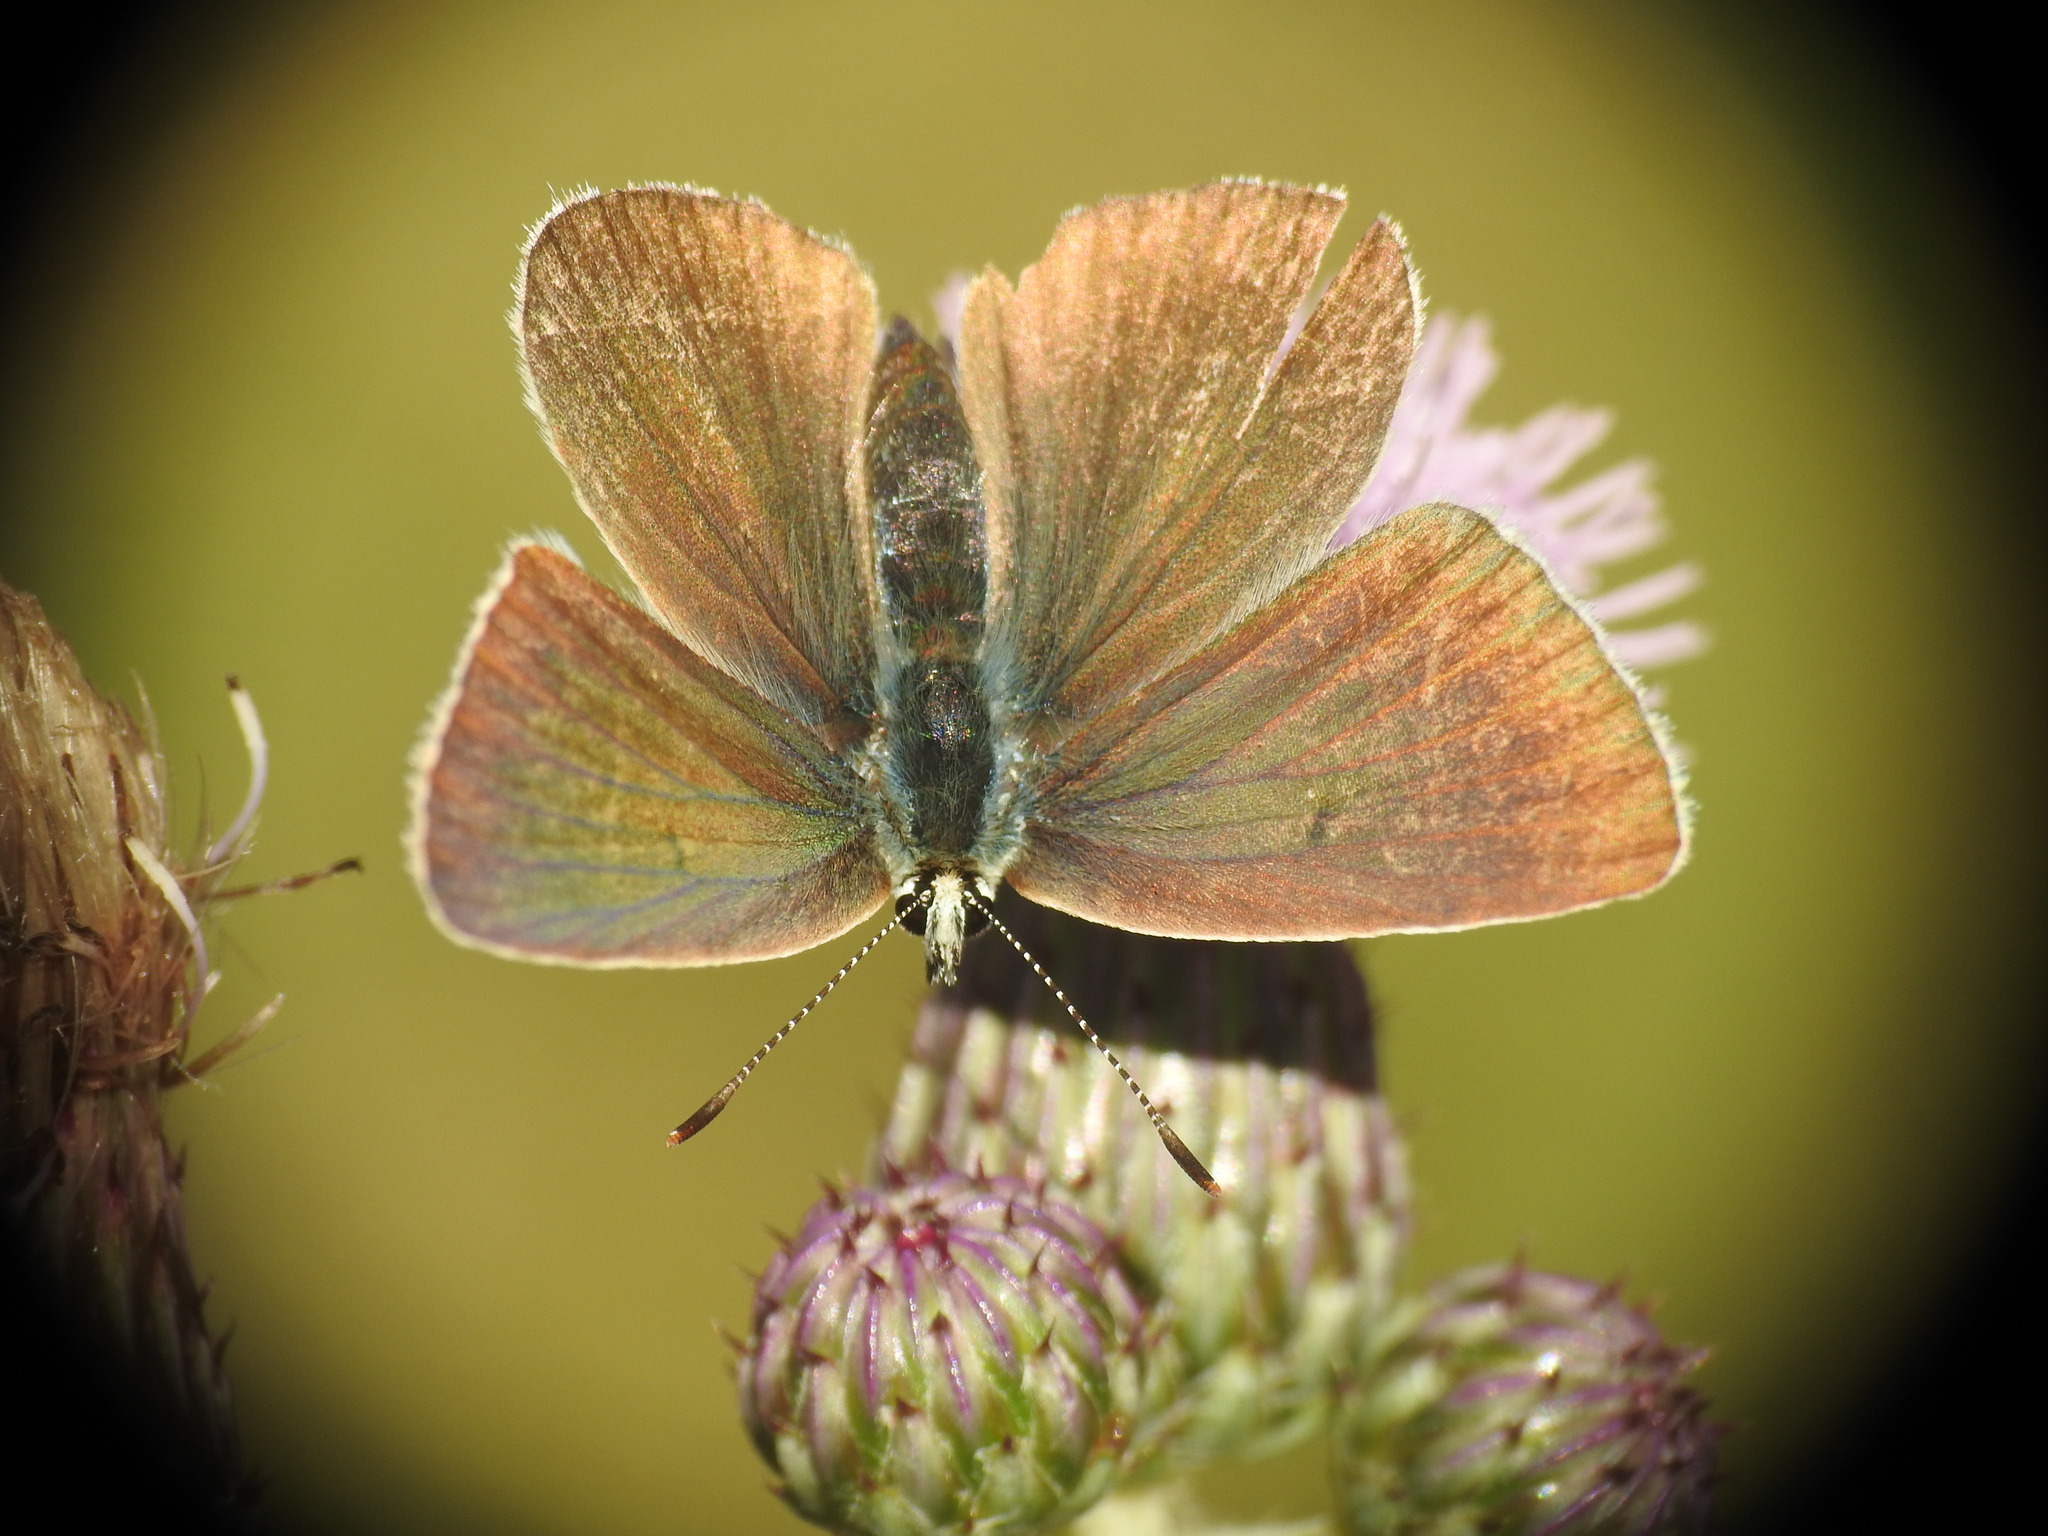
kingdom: Animalia
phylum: Arthropoda
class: Insecta
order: Lepidoptera
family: Lycaenidae
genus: Agrodiaetus
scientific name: Agrodiaetus damon
